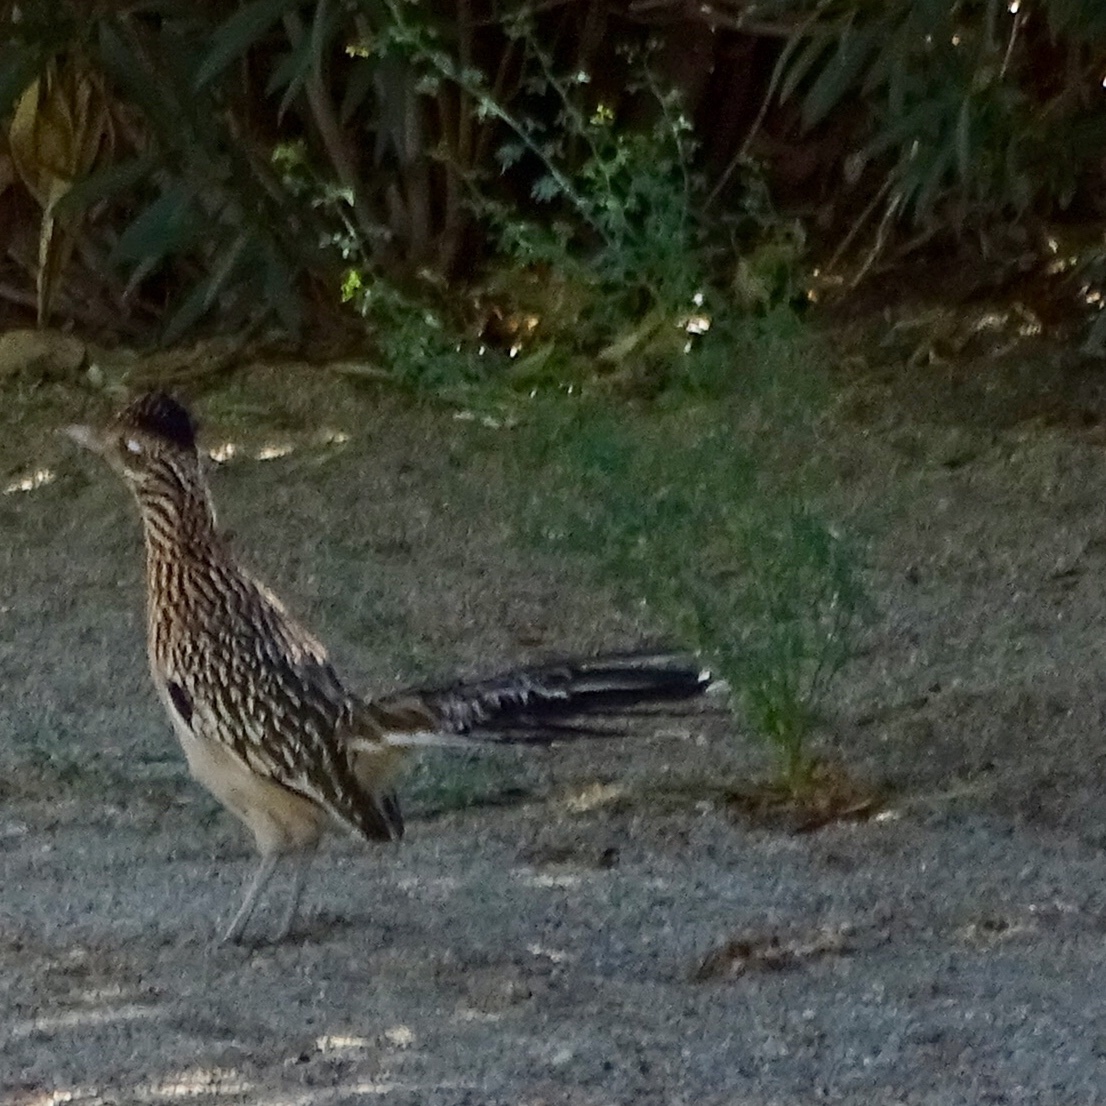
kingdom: Animalia
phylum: Chordata
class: Aves
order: Cuculiformes
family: Cuculidae
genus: Geococcyx
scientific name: Geococcyx californianus
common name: Greater roadrunner
